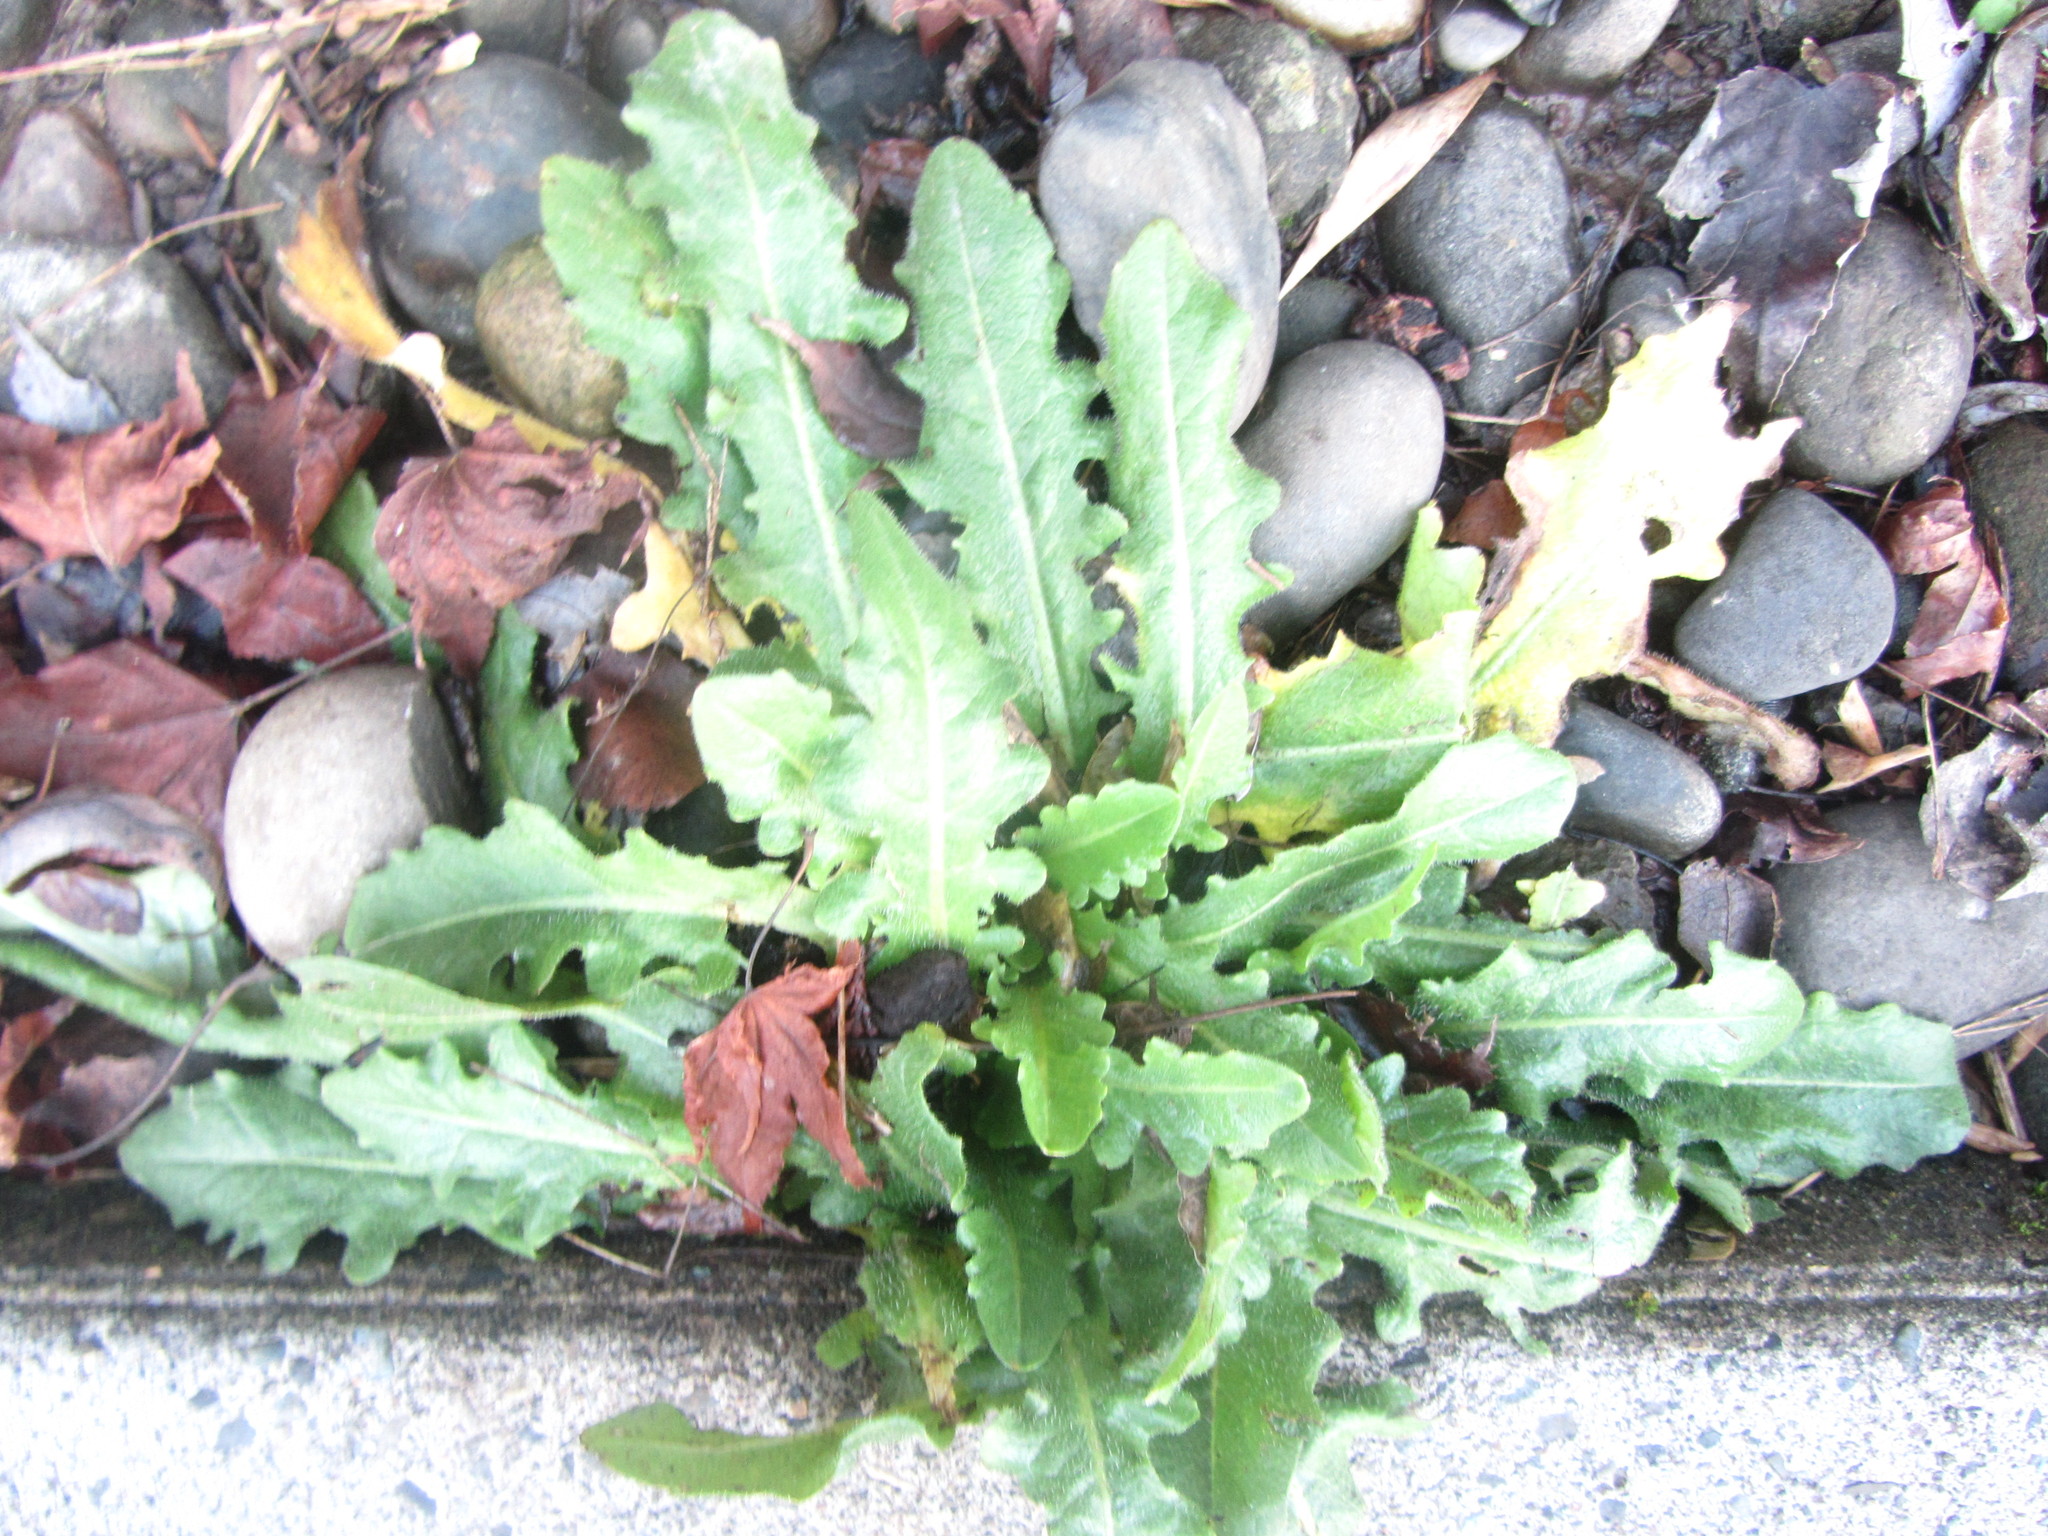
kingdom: Plantae
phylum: Tracheophyta
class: Magnoliopsida
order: Asterales
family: Asteraceae
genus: Hypochaeris
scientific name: Hypochaeris radicata
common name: Flatweed
